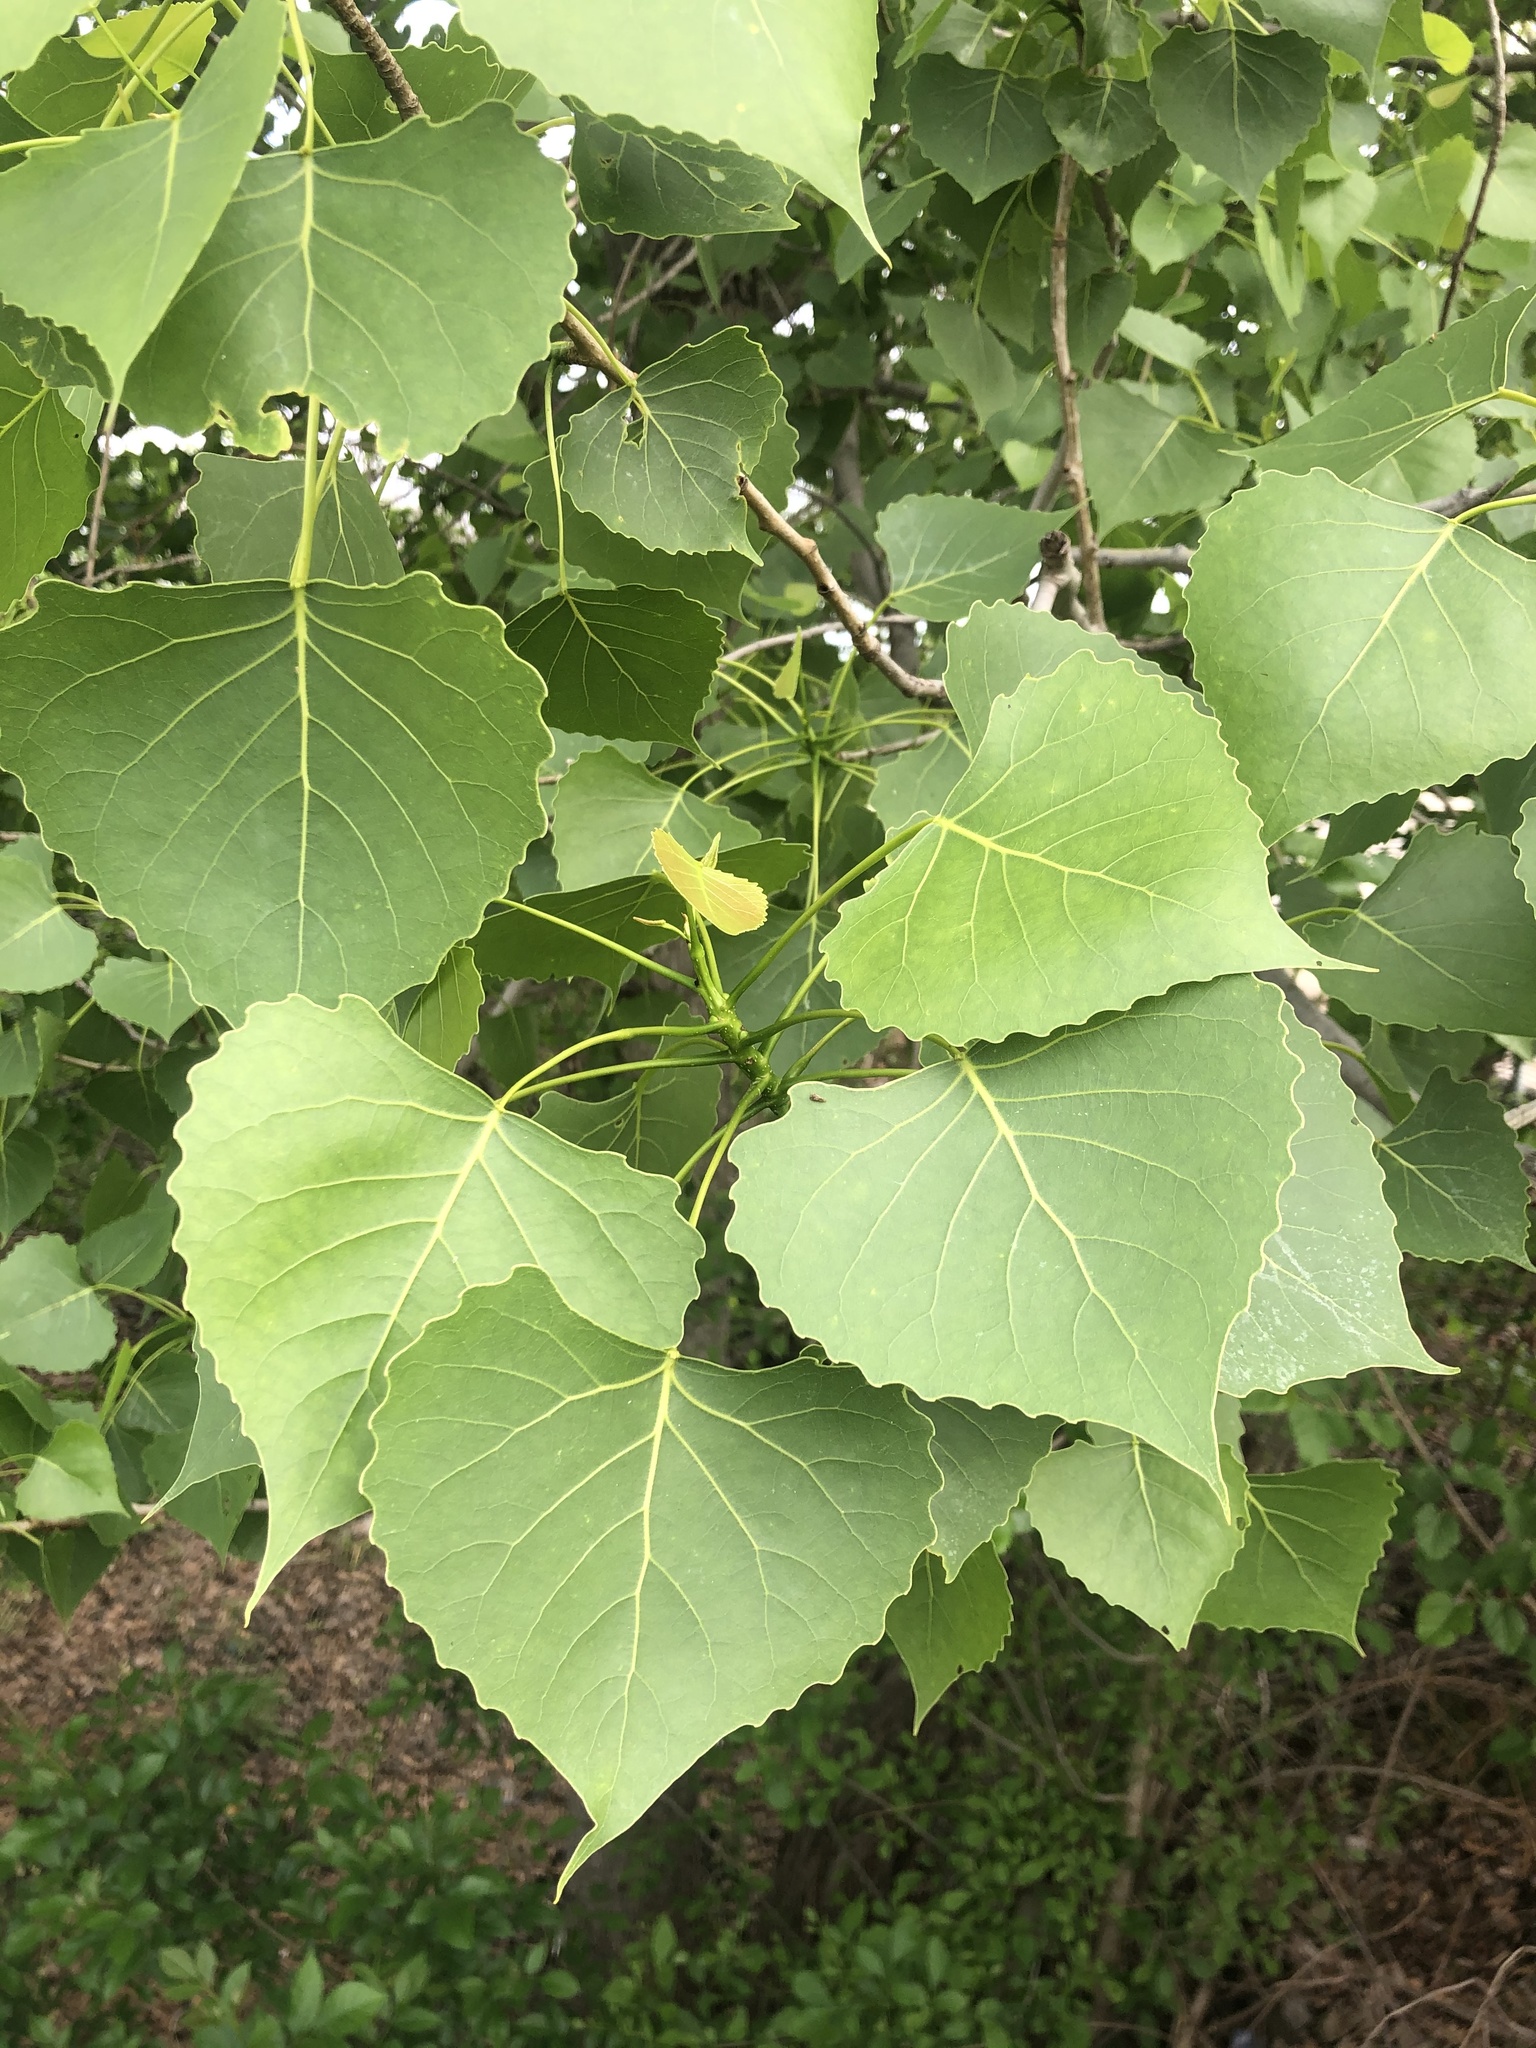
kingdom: Plantae
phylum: Tracheophyta
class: Magnoliopsida
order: Malpighiales
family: Salicaceae
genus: Populus
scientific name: Populus deltoides
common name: Eastern cottonwood
